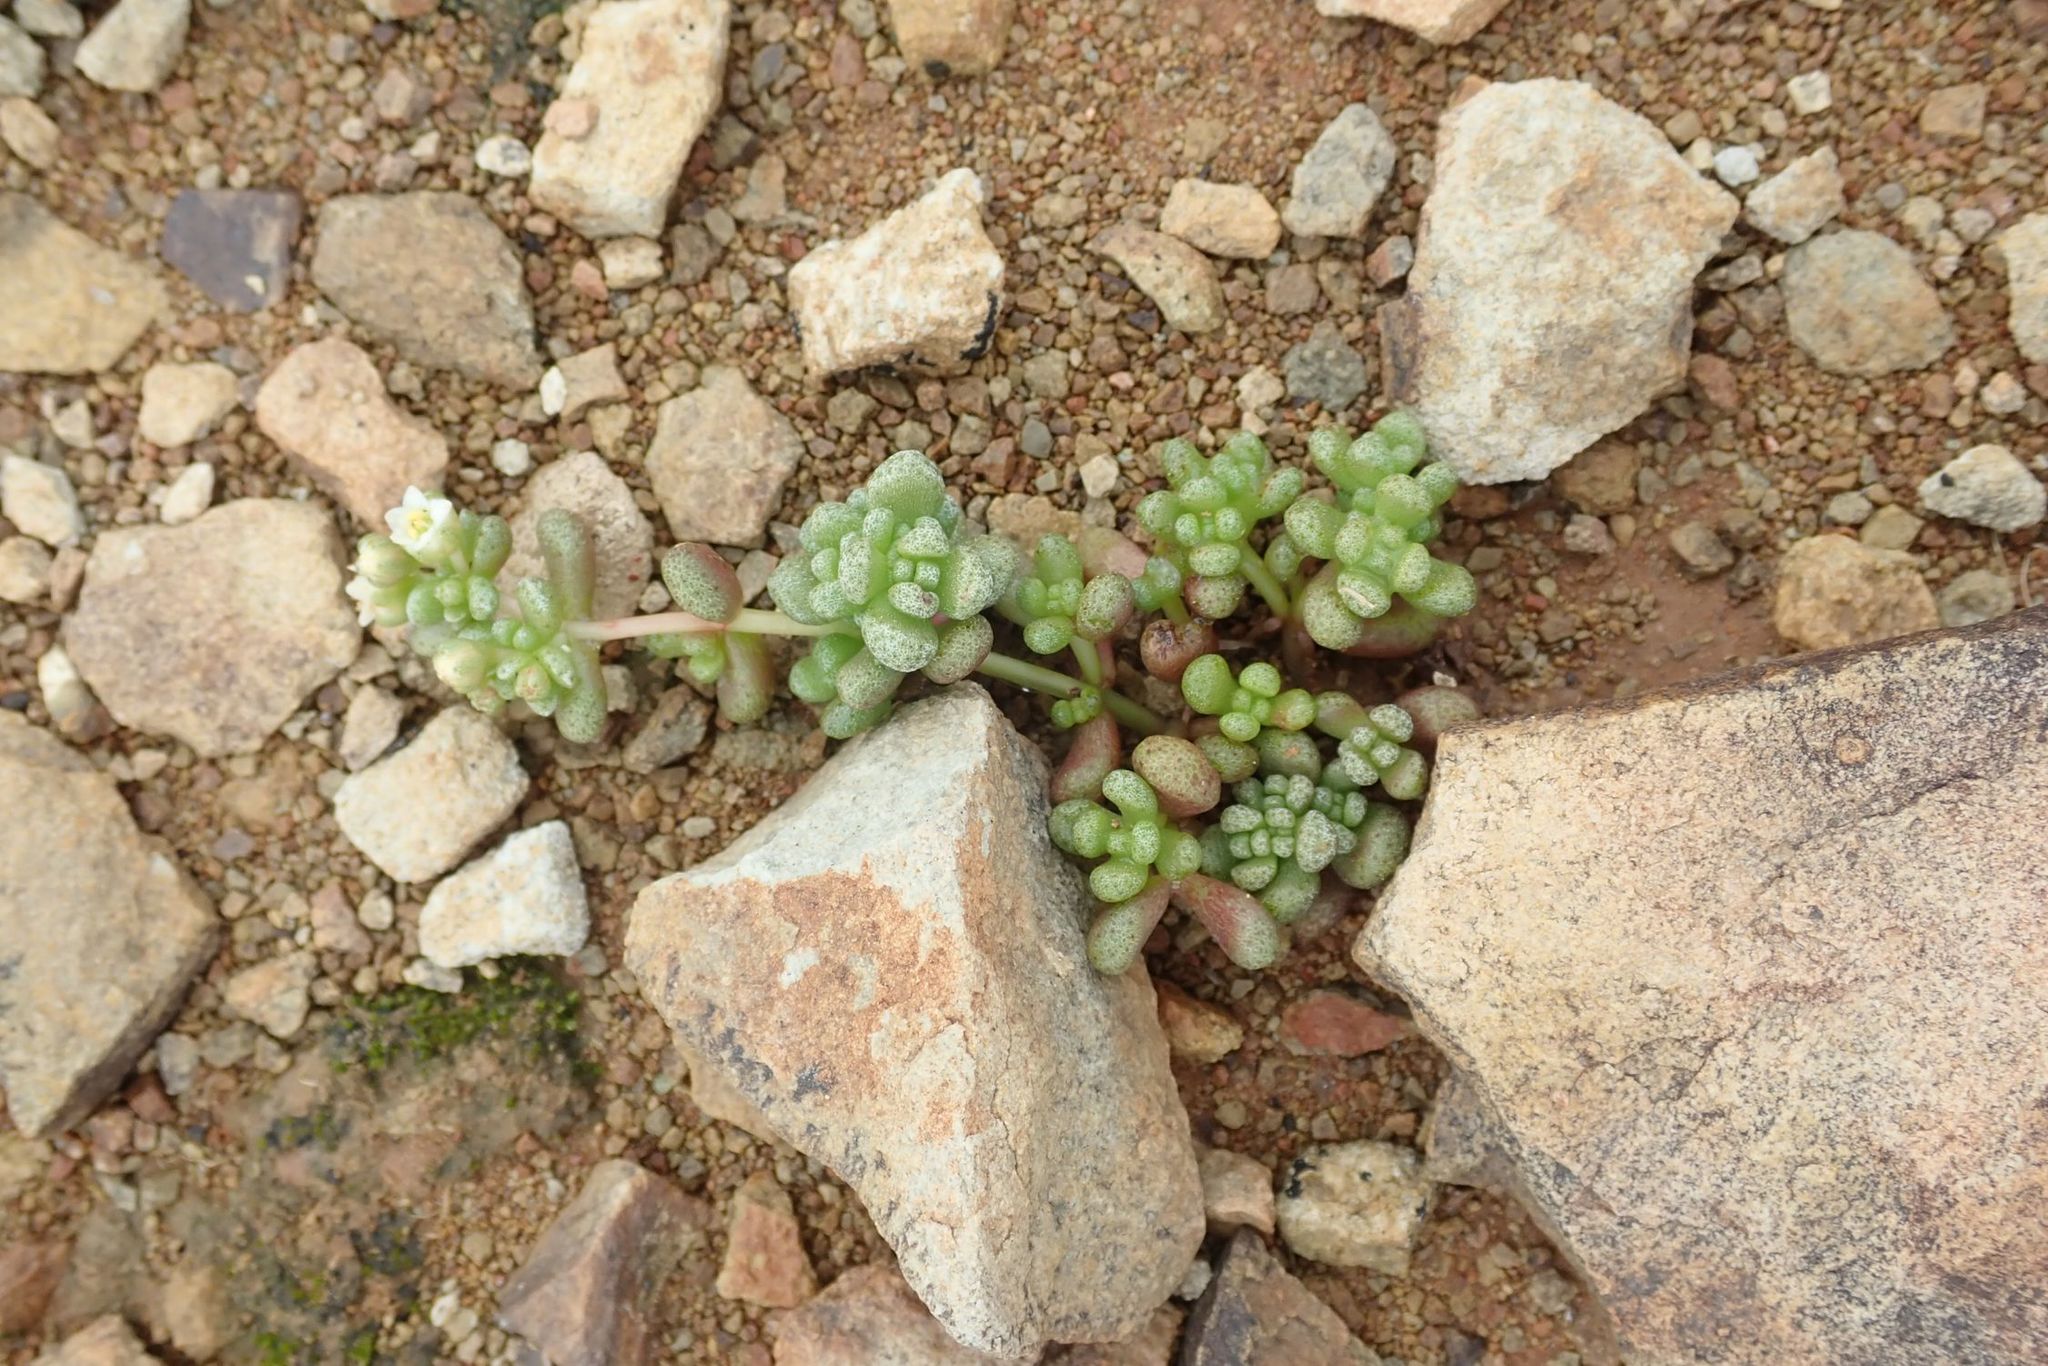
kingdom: Plantae
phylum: Tracheophyta
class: Magnoliopsida
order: Saxifragales
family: Crassulaceae
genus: Crassula
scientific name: Crassula corallina
